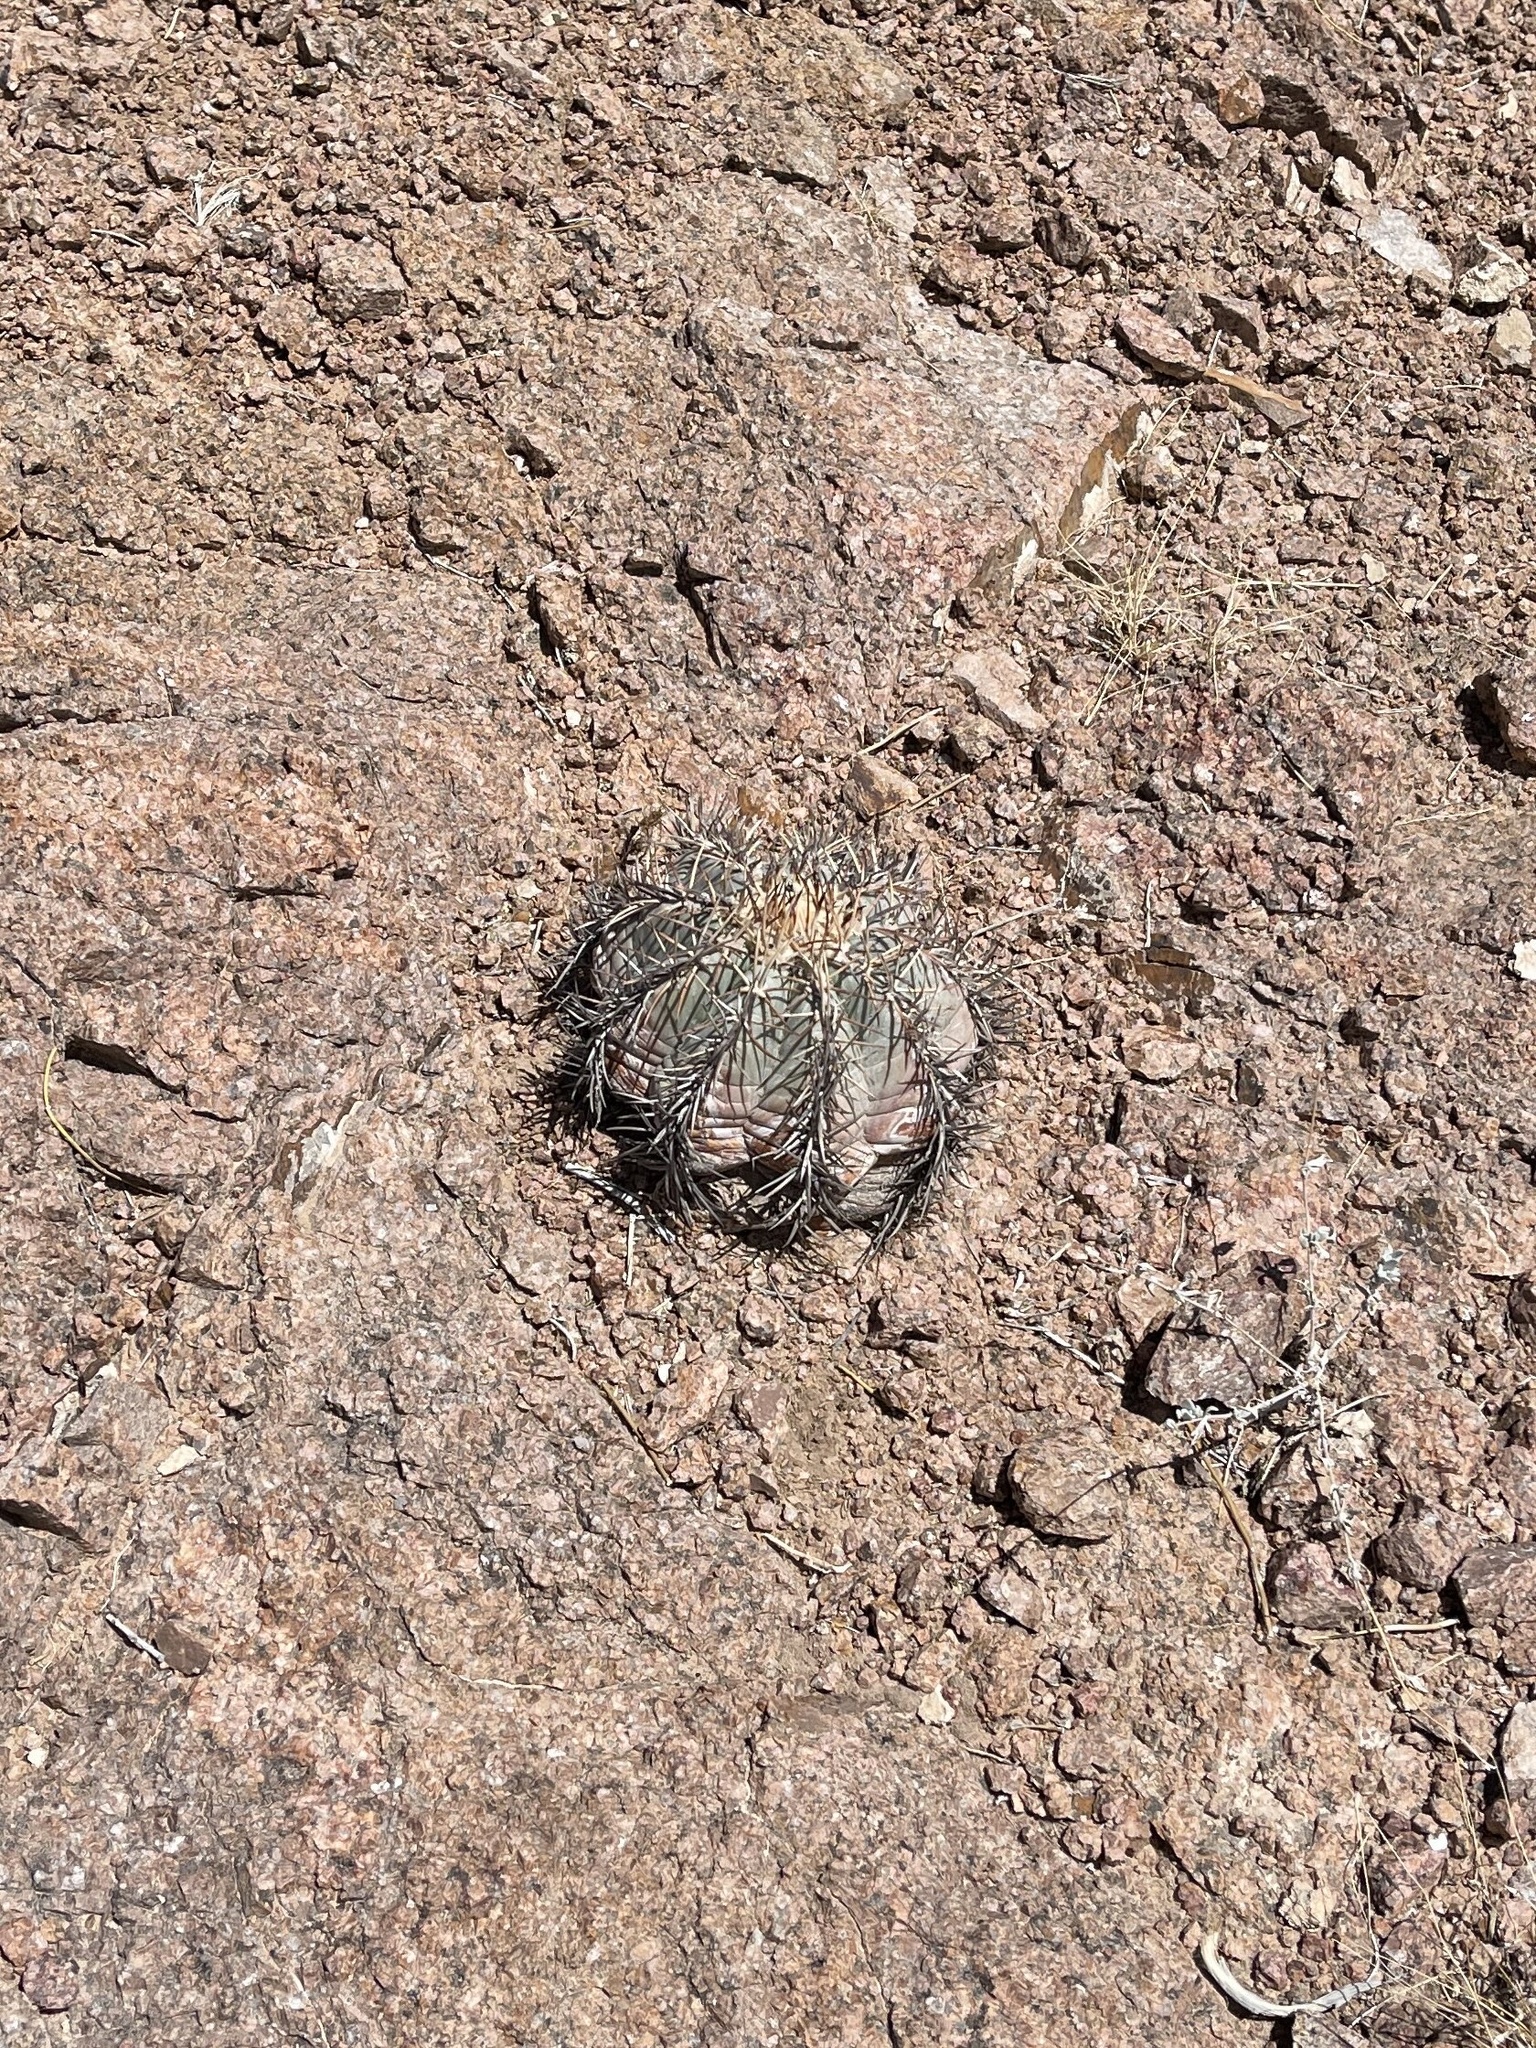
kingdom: Plantae
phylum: Tracheophyta
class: Magnoliopsida
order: Caryophyllales
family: Cactaceae
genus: Echinocactus
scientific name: Echinocactus horizonthalonius
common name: Devilshead
